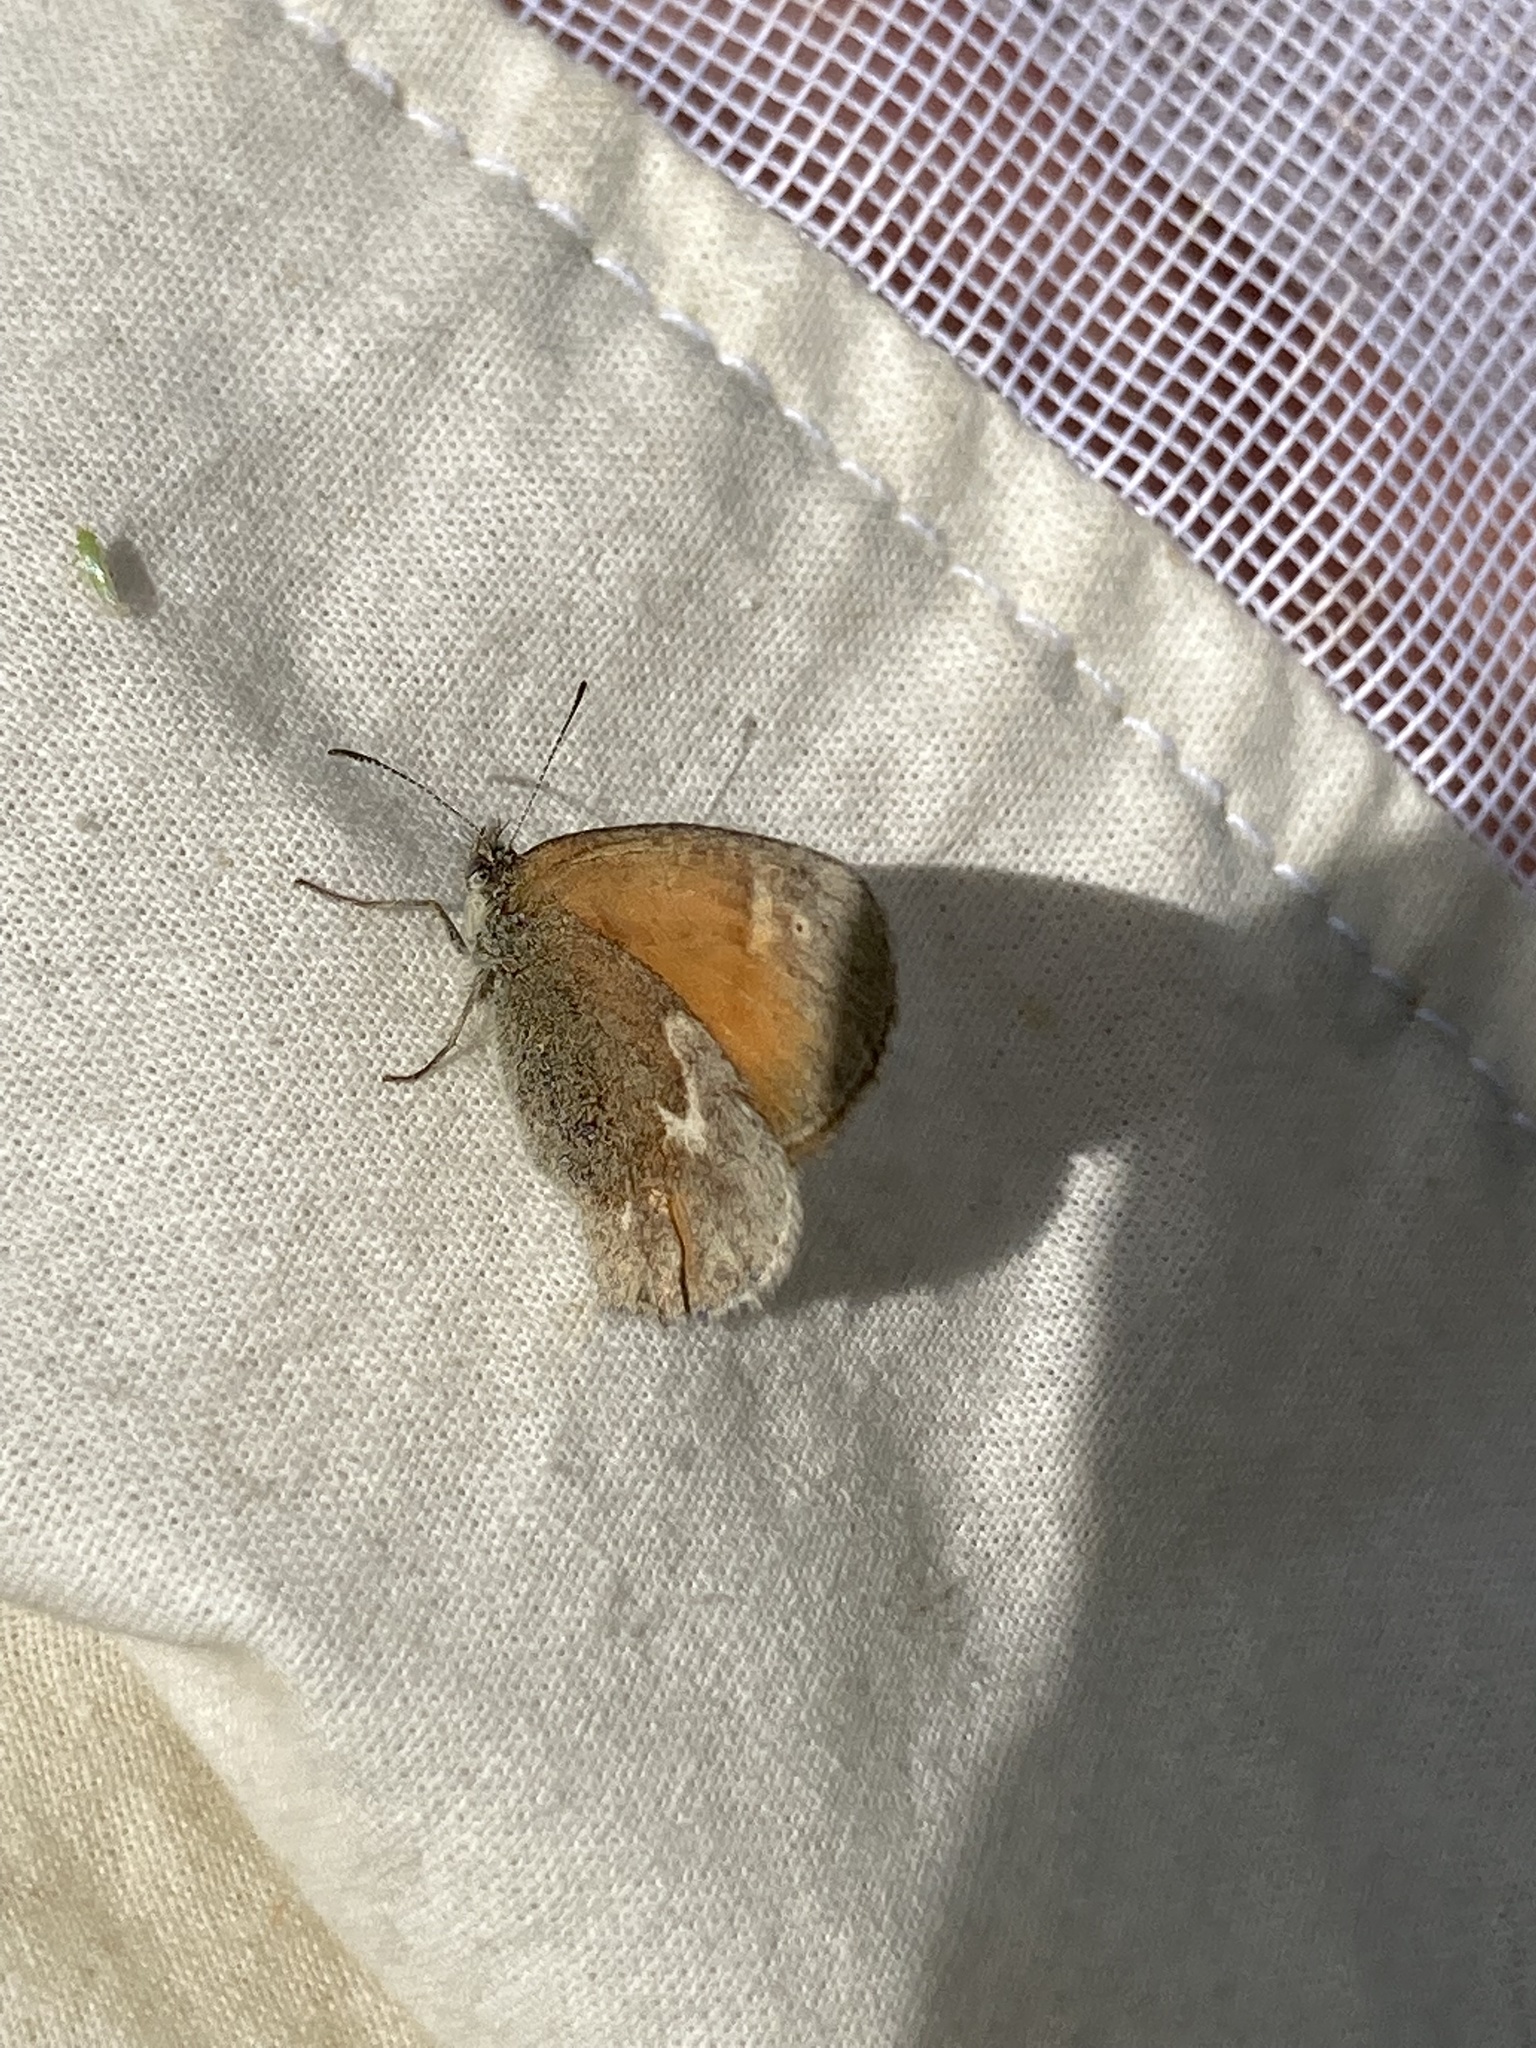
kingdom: Animalia
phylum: Arthropoda
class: Insecta
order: Lepidoptera
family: Nymphalidae
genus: Coenonympha
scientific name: Coenonympha california
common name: Common ringlet
